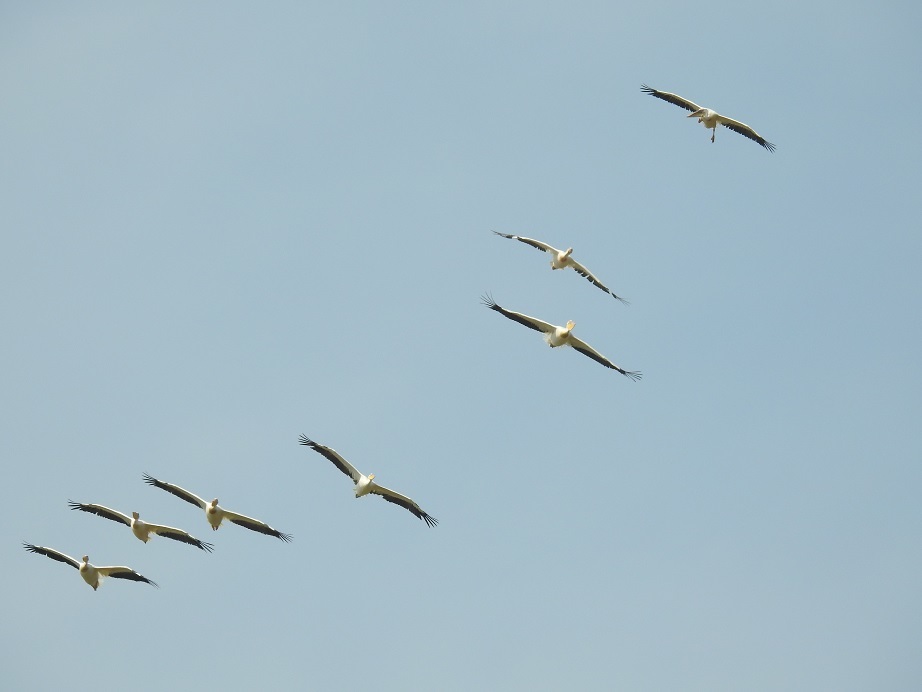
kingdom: Animalia
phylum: Chordata
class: Aves
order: Pelecaniformes
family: Pelecanidae
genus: Pelecanus
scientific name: Pelecanus onocrotalus
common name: Great white pelican
